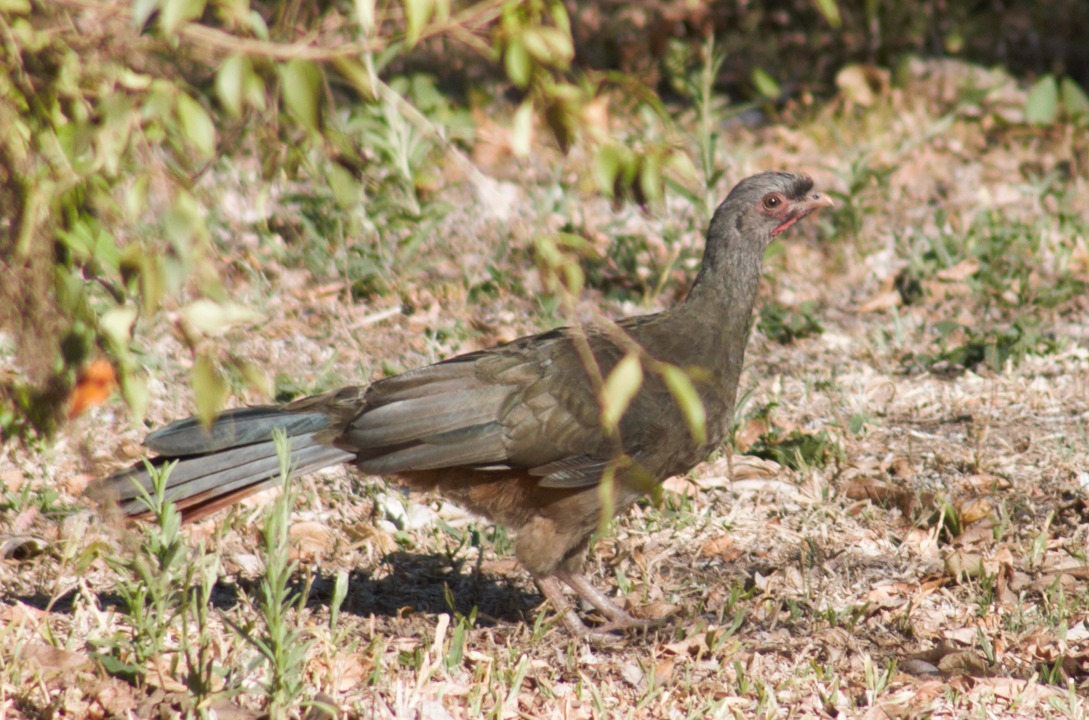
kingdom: Animalia
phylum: Chordata
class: Aves
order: Galliformes
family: Cracidae
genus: Ortalis
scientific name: Ortalis canicollis
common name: Chaco chachalaca
